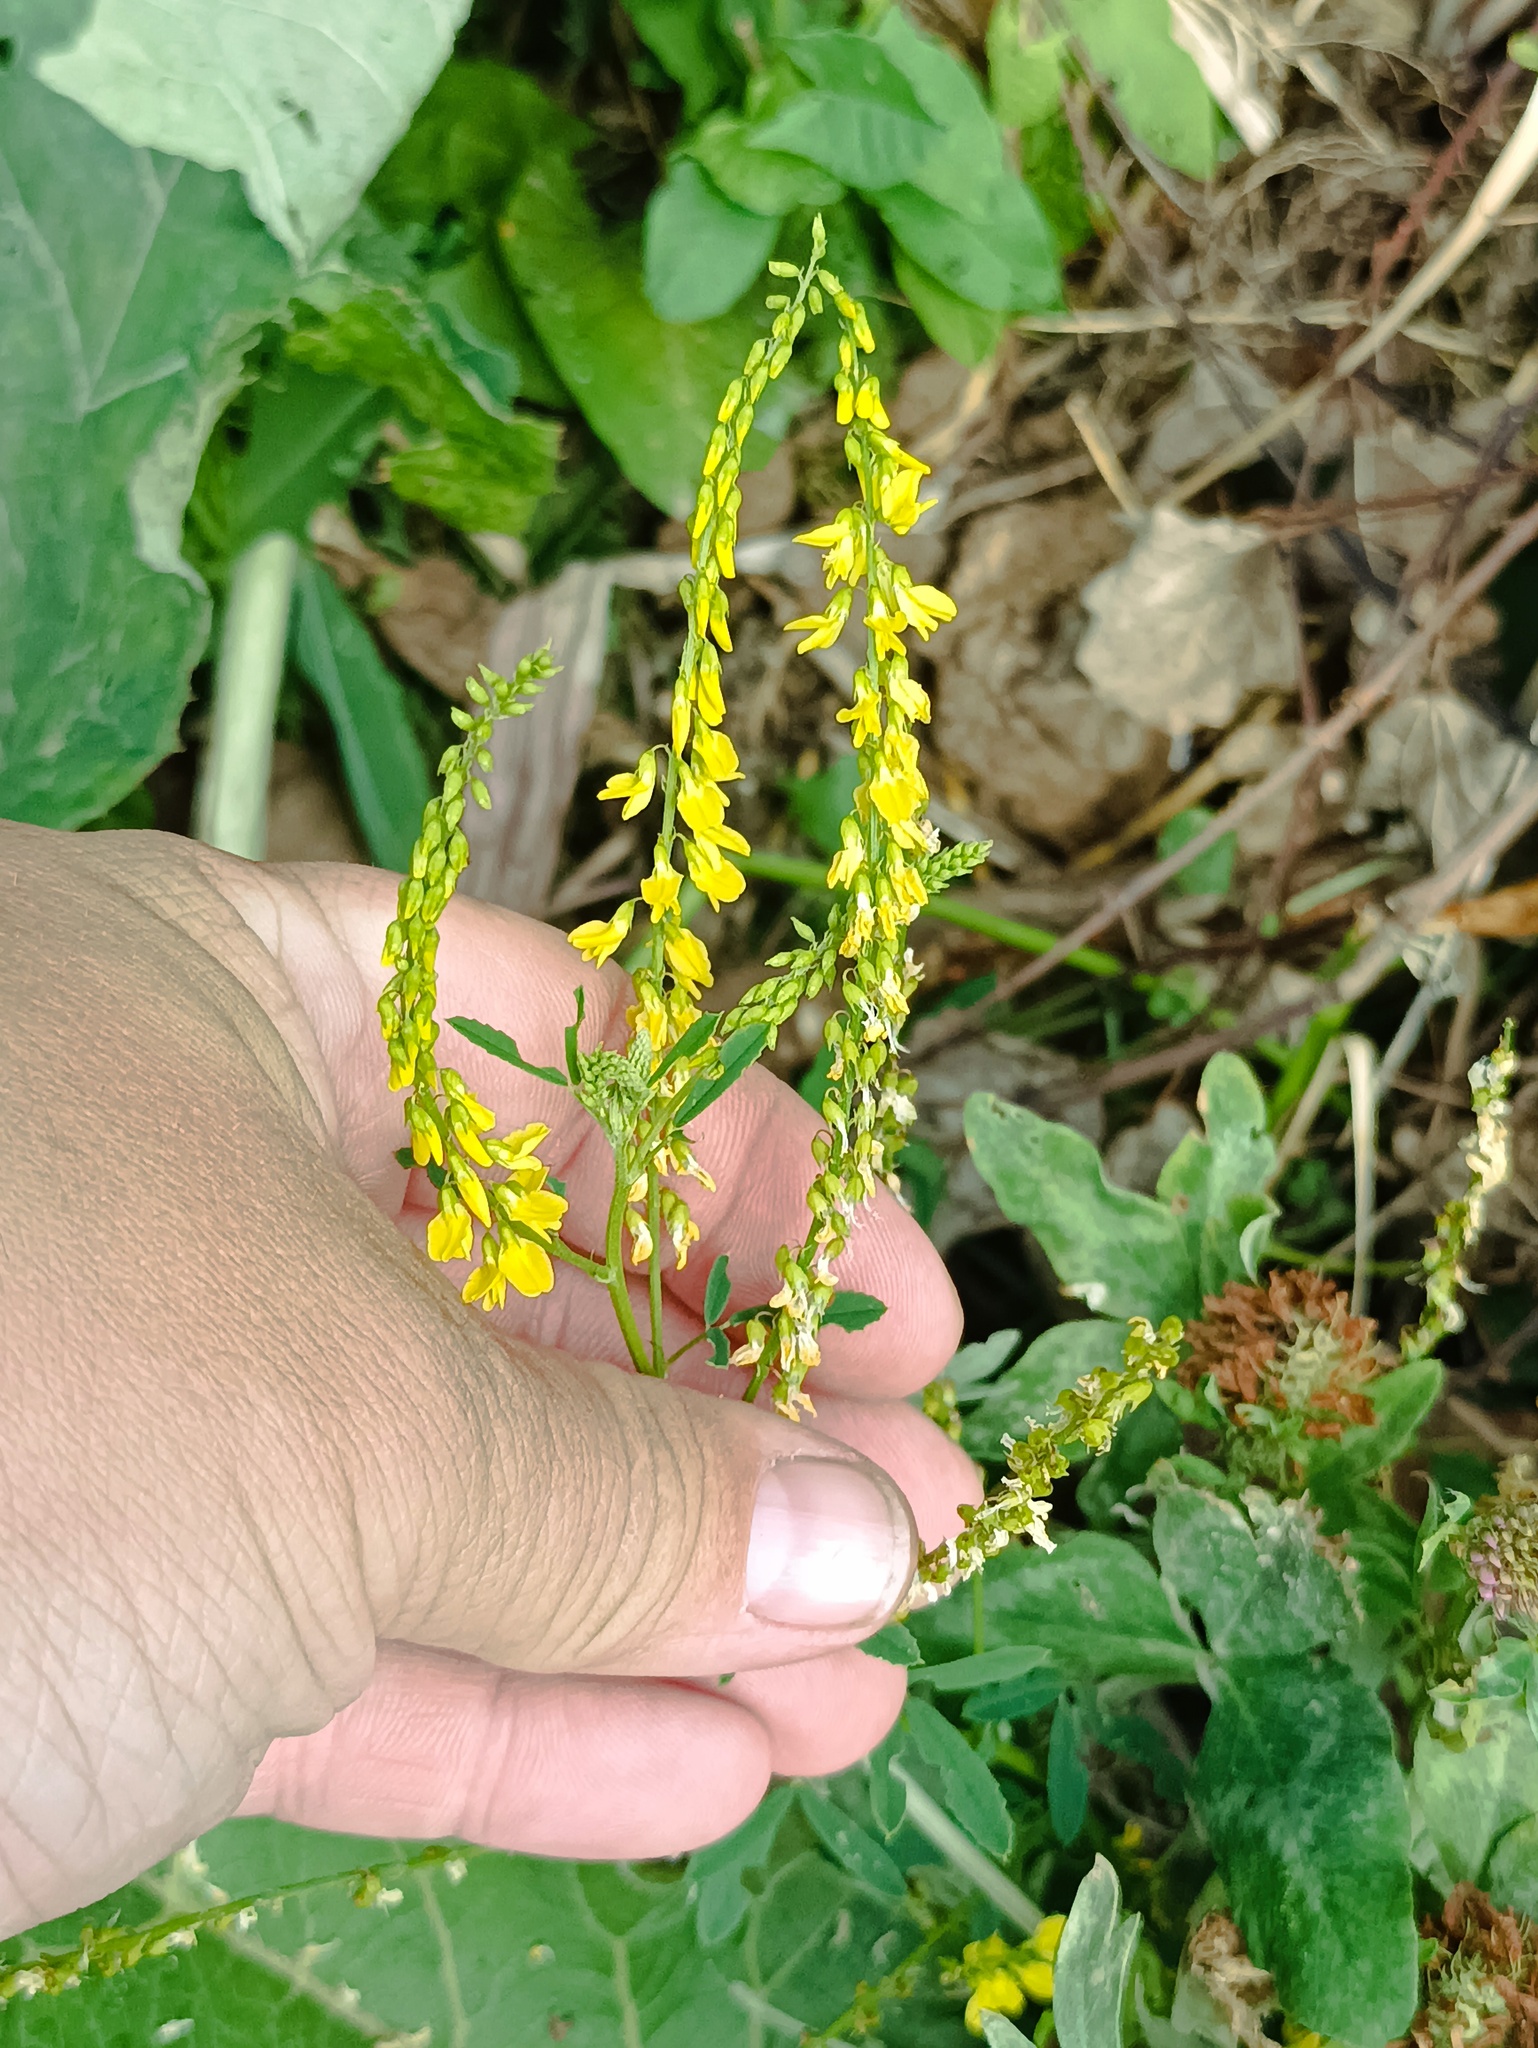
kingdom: Plantae
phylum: Tracheophyta
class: Magnoliopsida
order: Fabales
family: Fabaceae
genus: Melilotus
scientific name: Melilotus officinalis
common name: Sweetclover
